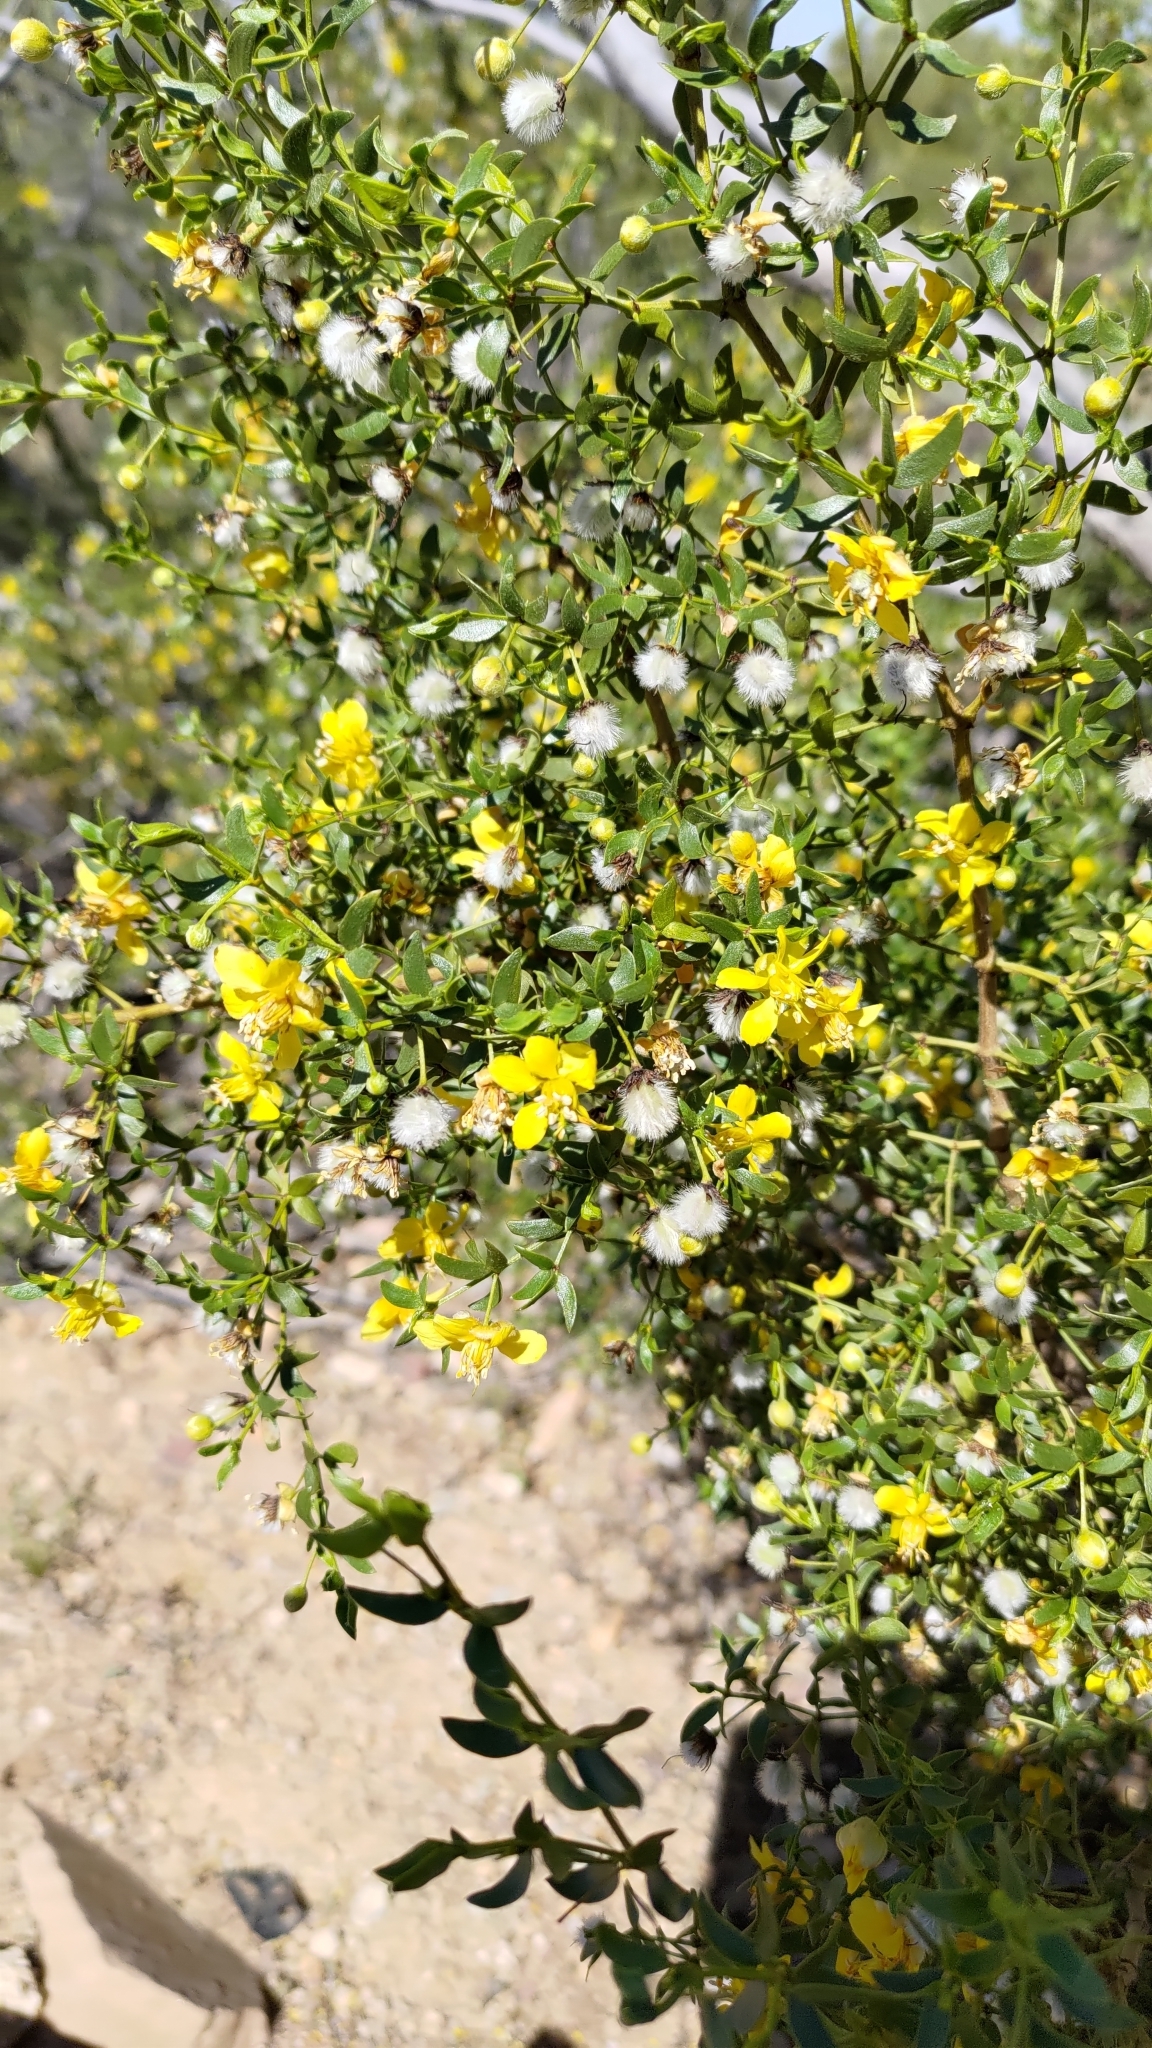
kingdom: Plantae
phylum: Tracheophyta
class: Magnoliopsida
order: Zygophyllales
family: Zygophyllaceae
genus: Larrea
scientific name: Larrea tridentata
